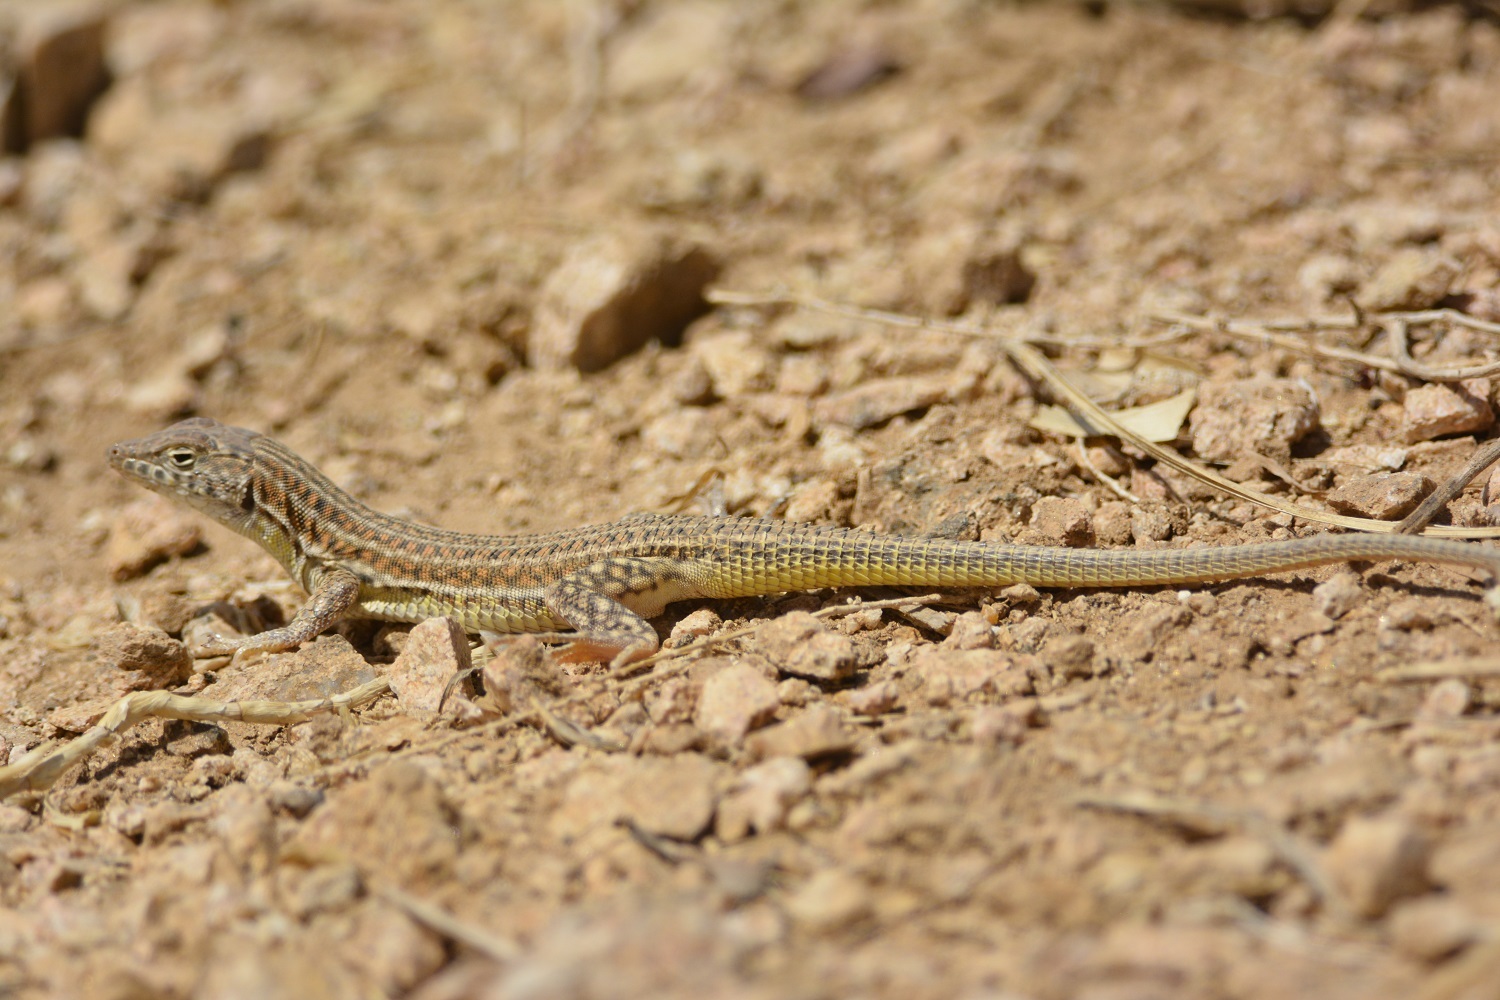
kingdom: Animalia
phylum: Chordata
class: Squamata
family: Lacertidae
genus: Acanthodactylus
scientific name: Acanthodactylus boskianus
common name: Bosc’s fringe-toed lizard
